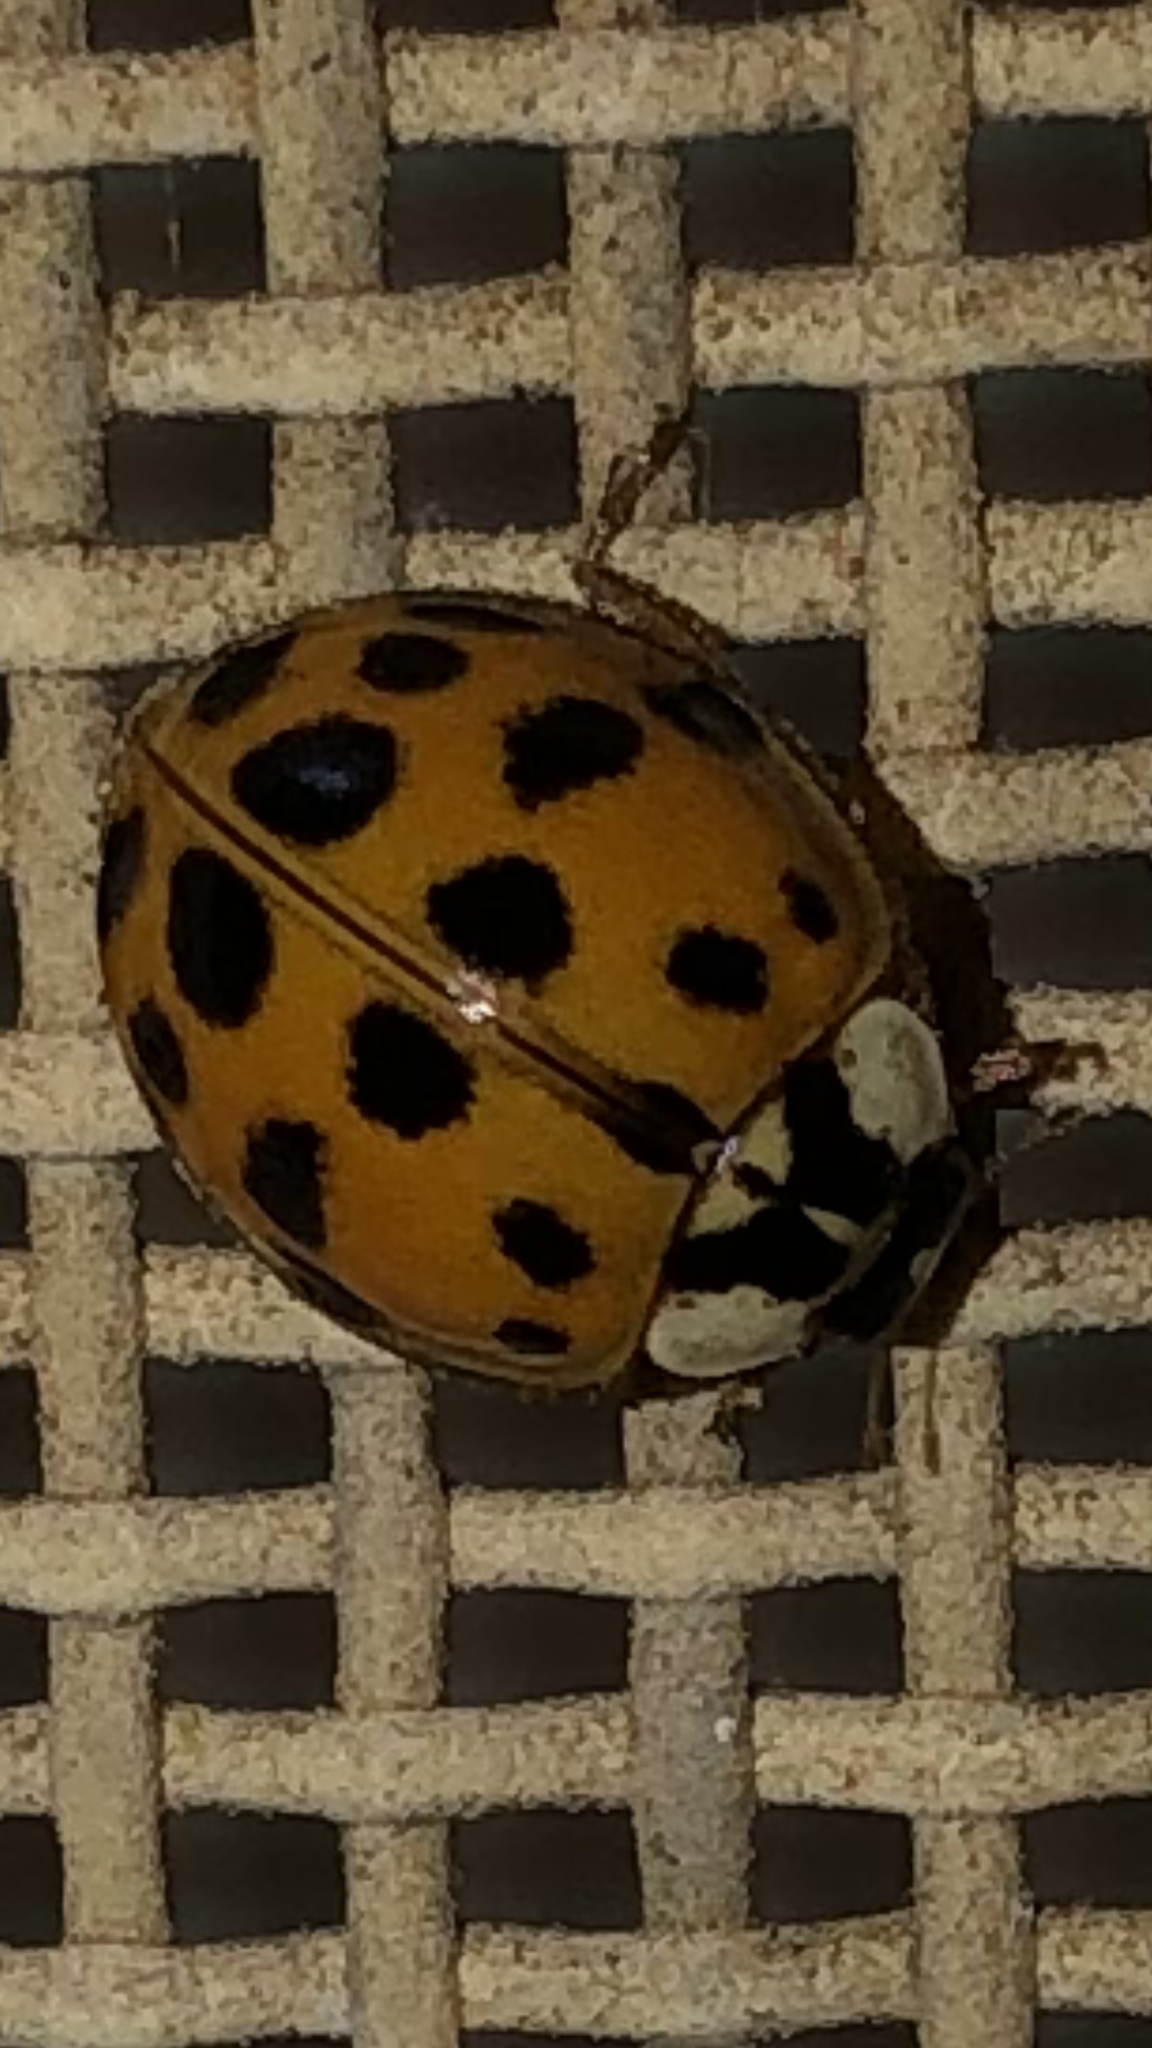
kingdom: Animalia
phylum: Arthropoda
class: Insecta
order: Coleoptera
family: Coccinellidae
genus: Harmonia
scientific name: Harmonia axyridis
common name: Harlequin ladybird
